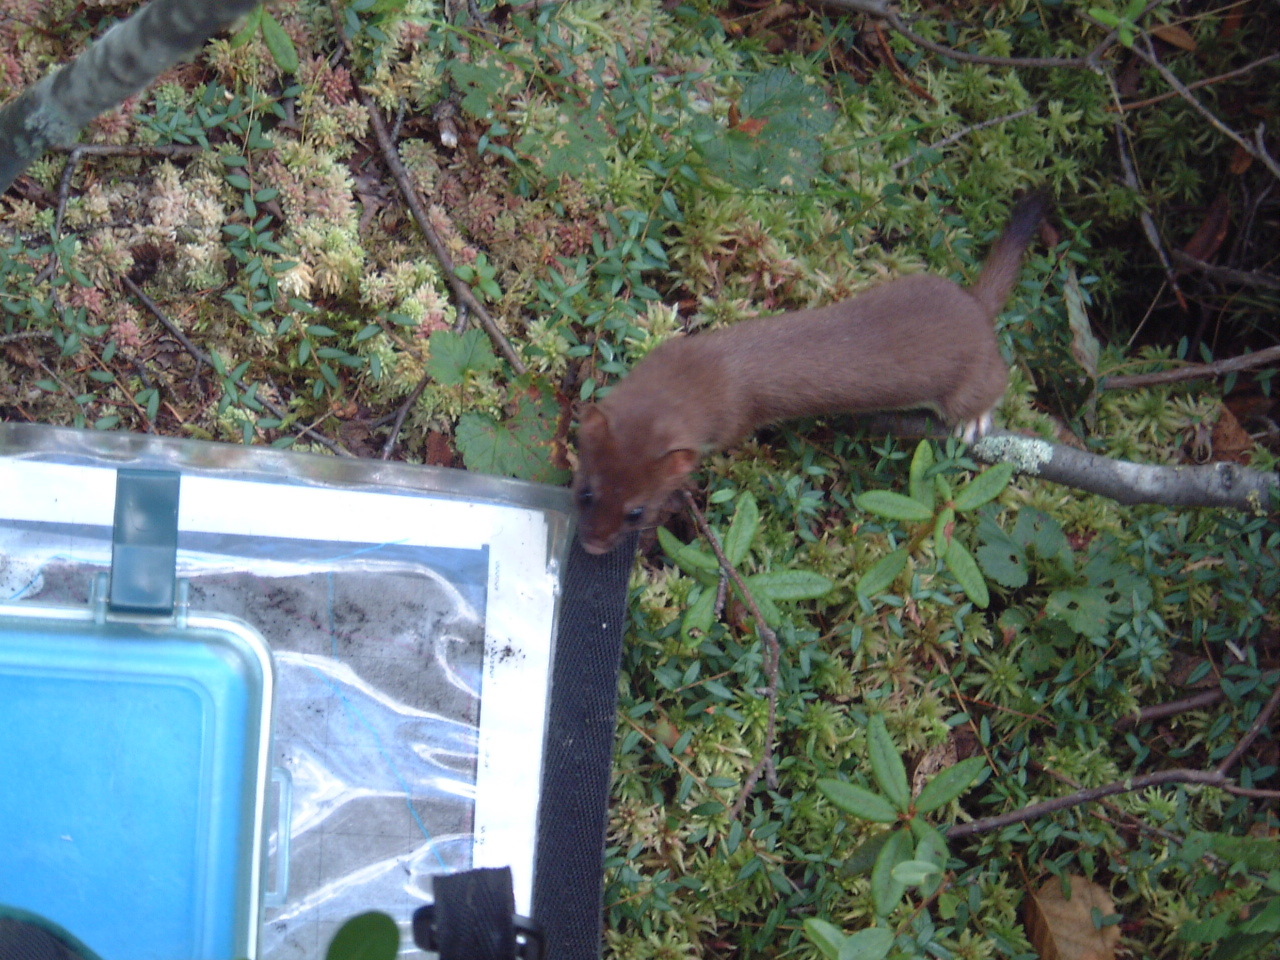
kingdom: Animalia
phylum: Chordata
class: Mammalia
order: Carnivora
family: Mustelidae
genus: Mustela
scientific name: Mustela erminea
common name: Stoat
